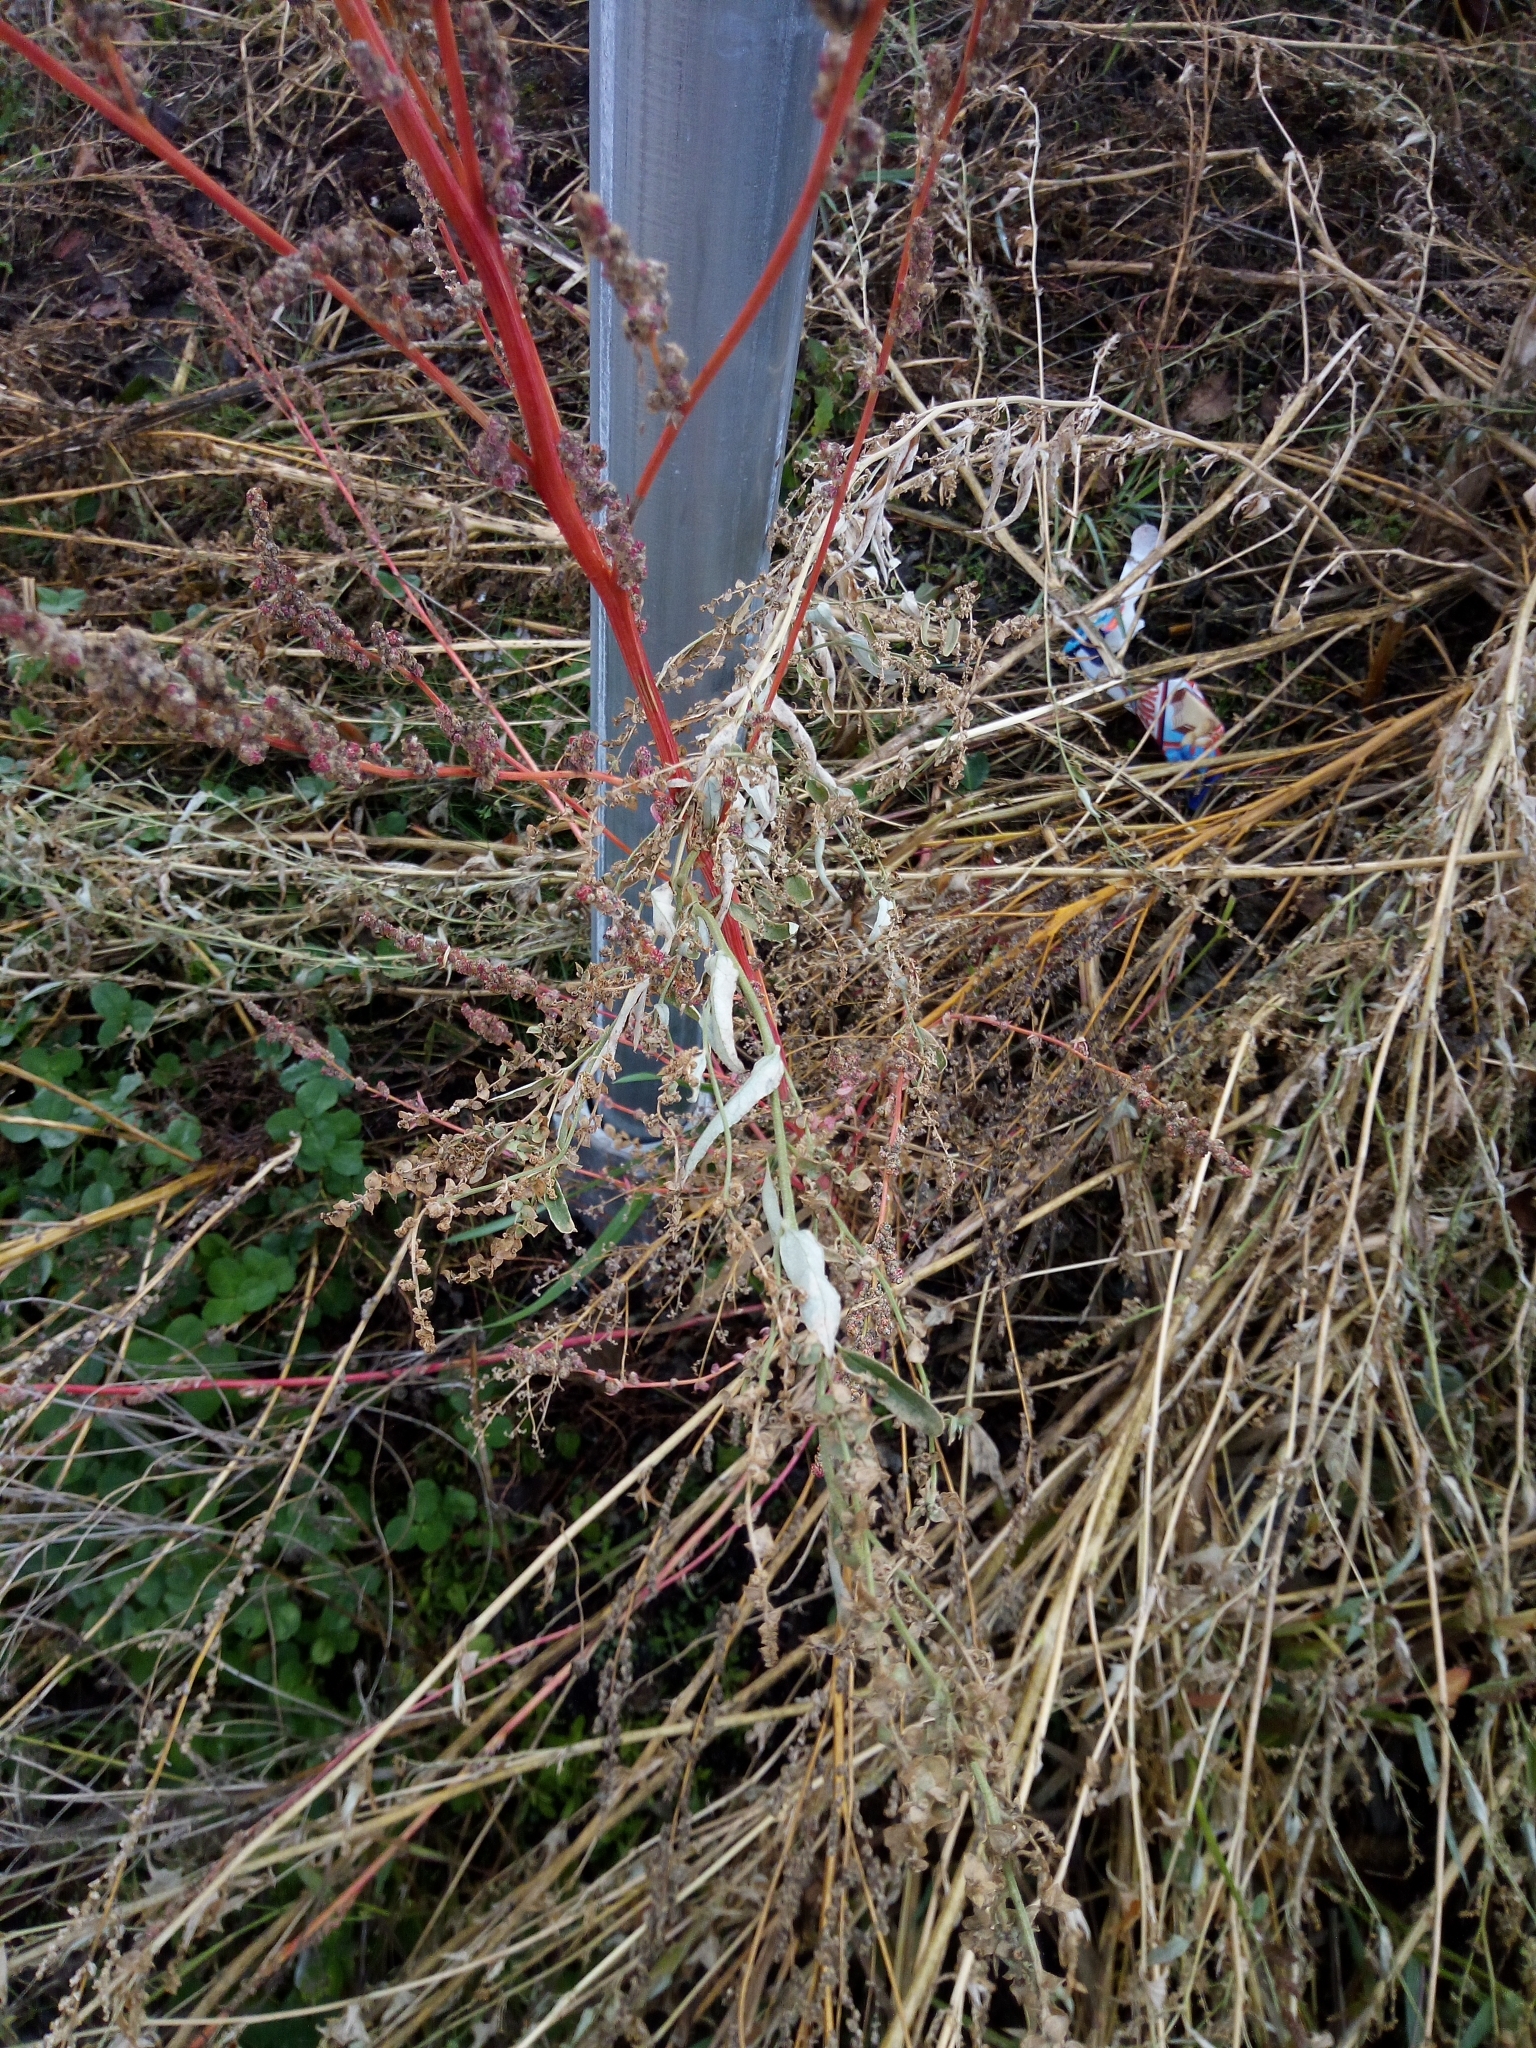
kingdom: Plantae
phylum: Tracheophyta
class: Magnoliopsida
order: Caryophyllales
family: Amaranthaceae
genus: Atriplex
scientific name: Atriplex oblongifolia
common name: Oblongleaf orache
